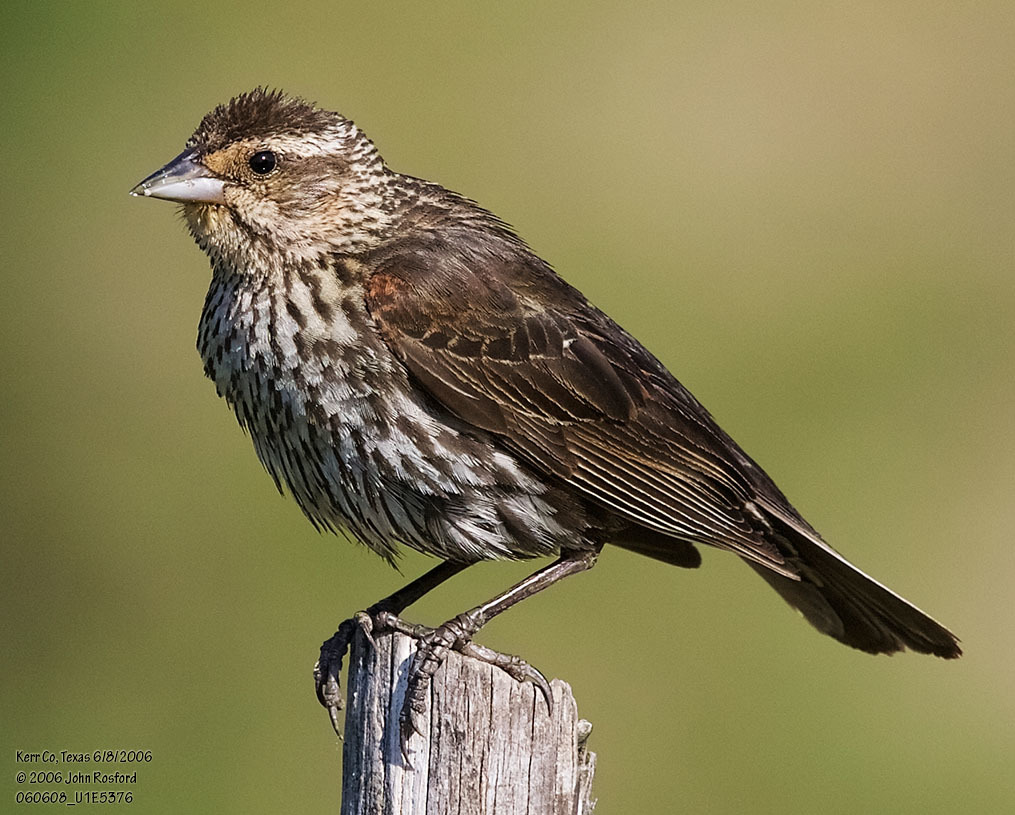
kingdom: Animalia
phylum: Chordata
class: Aves
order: Passeriformes
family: Icteridae
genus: Agelaius
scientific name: Agelaius phoeniceus
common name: Red-winged blackbird
